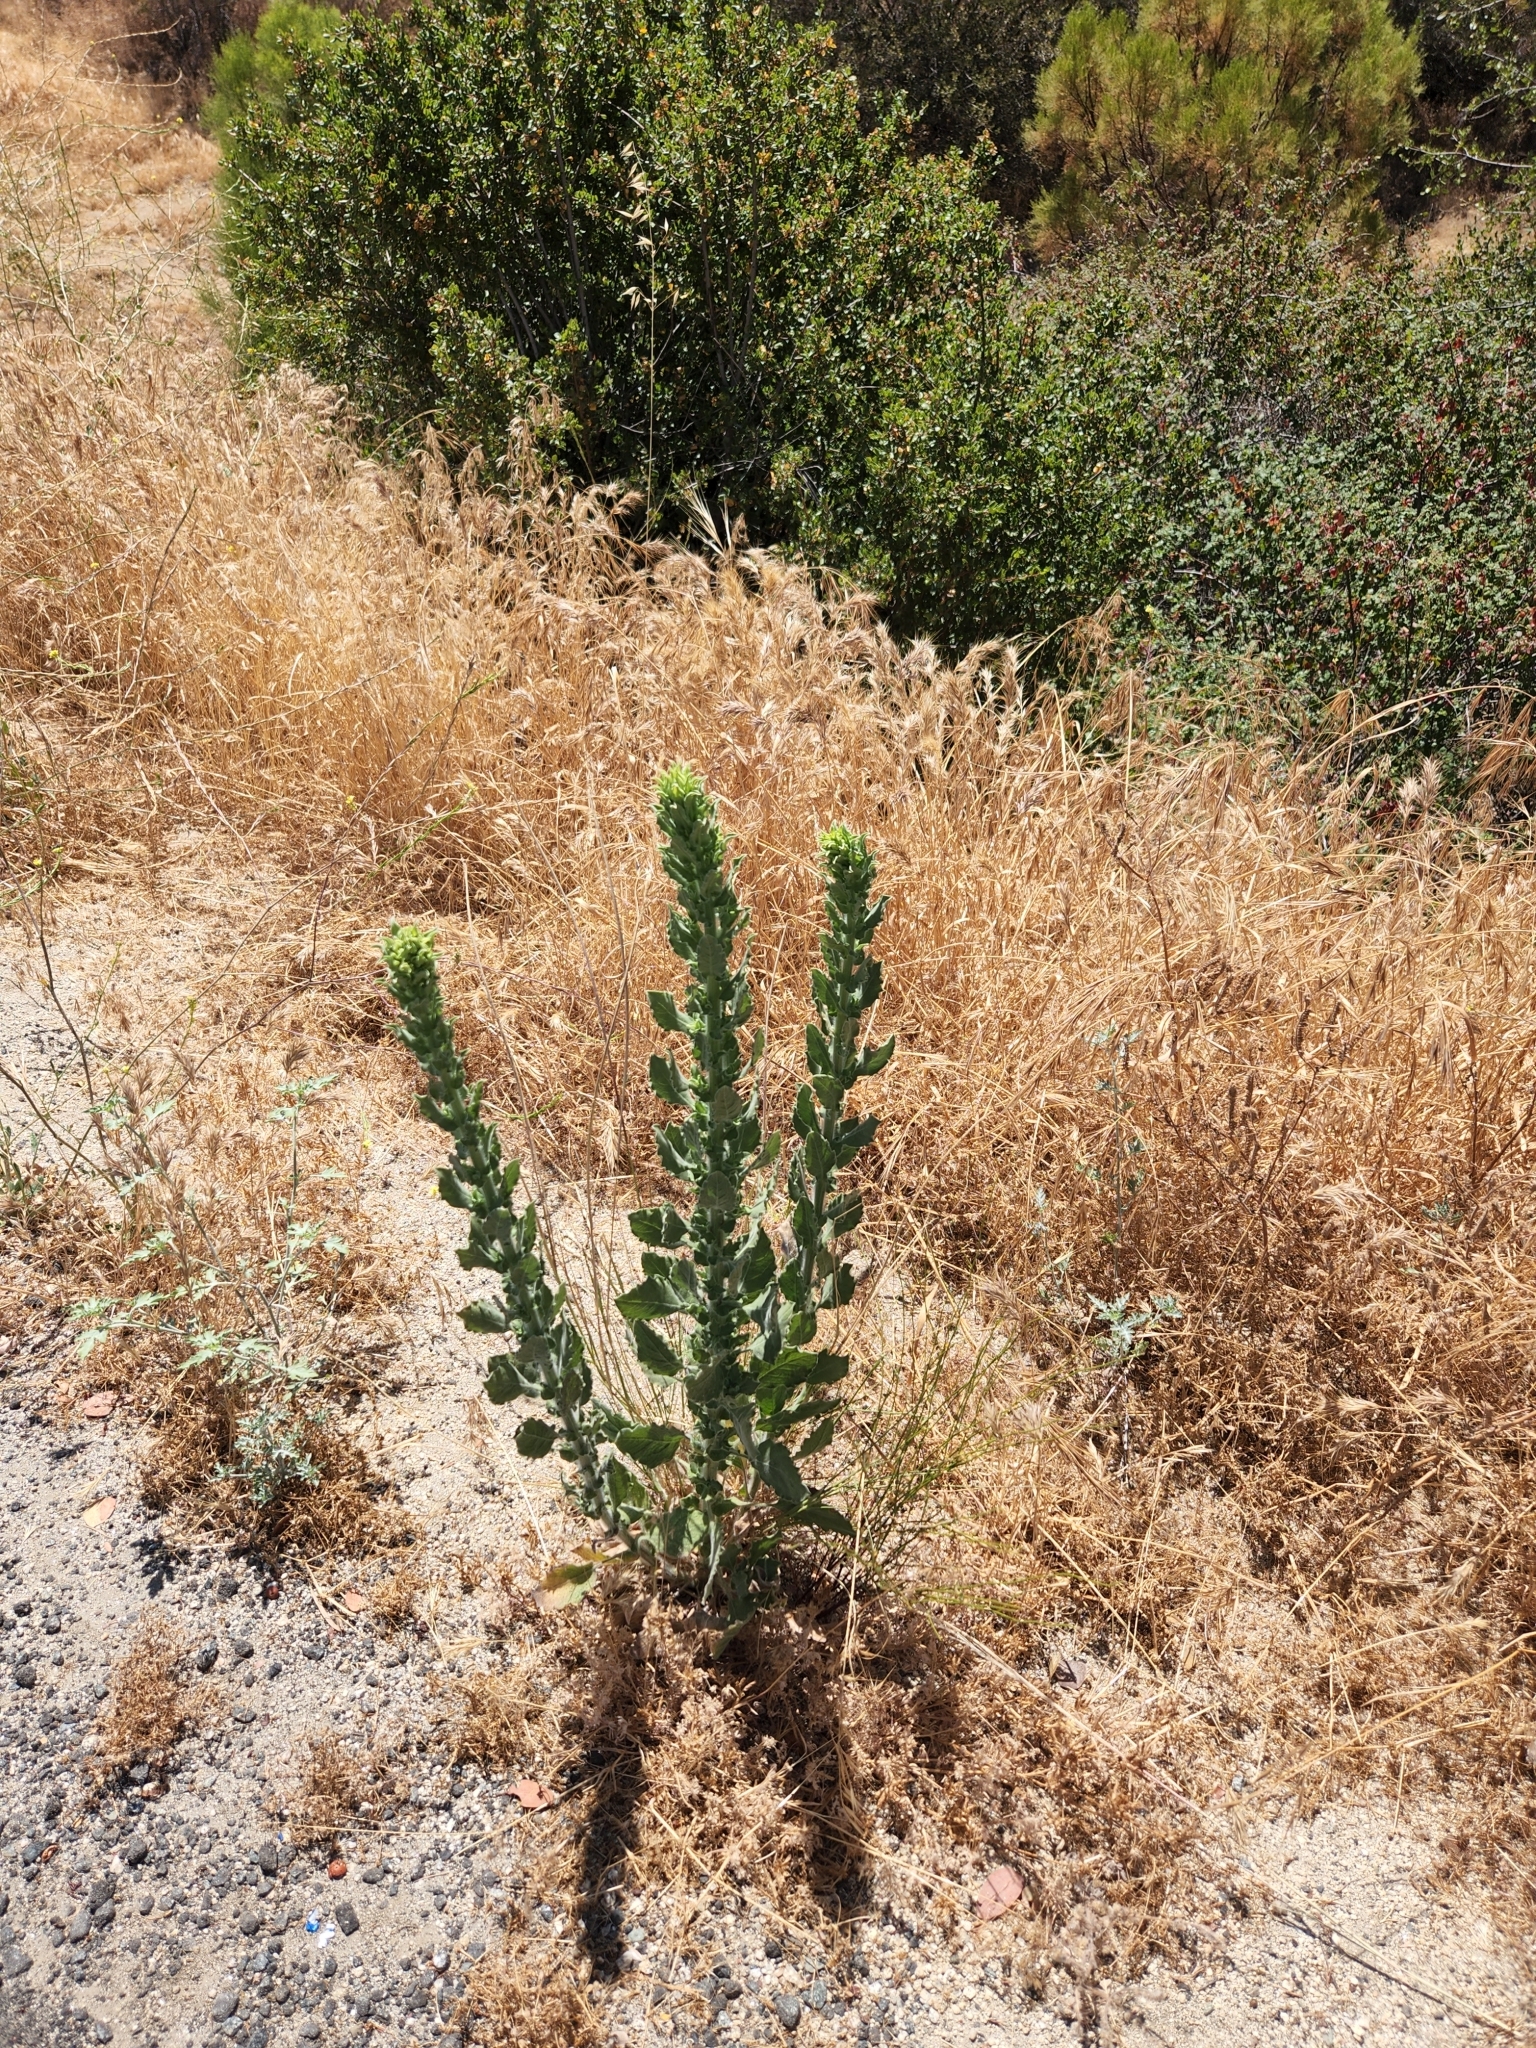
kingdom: Plantae
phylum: Tracheophyta
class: Magnoliopsida
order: Asterales
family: Asteraceae
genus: Heterotheca
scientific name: Heterotheca grandiflora
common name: Telegraphweed
